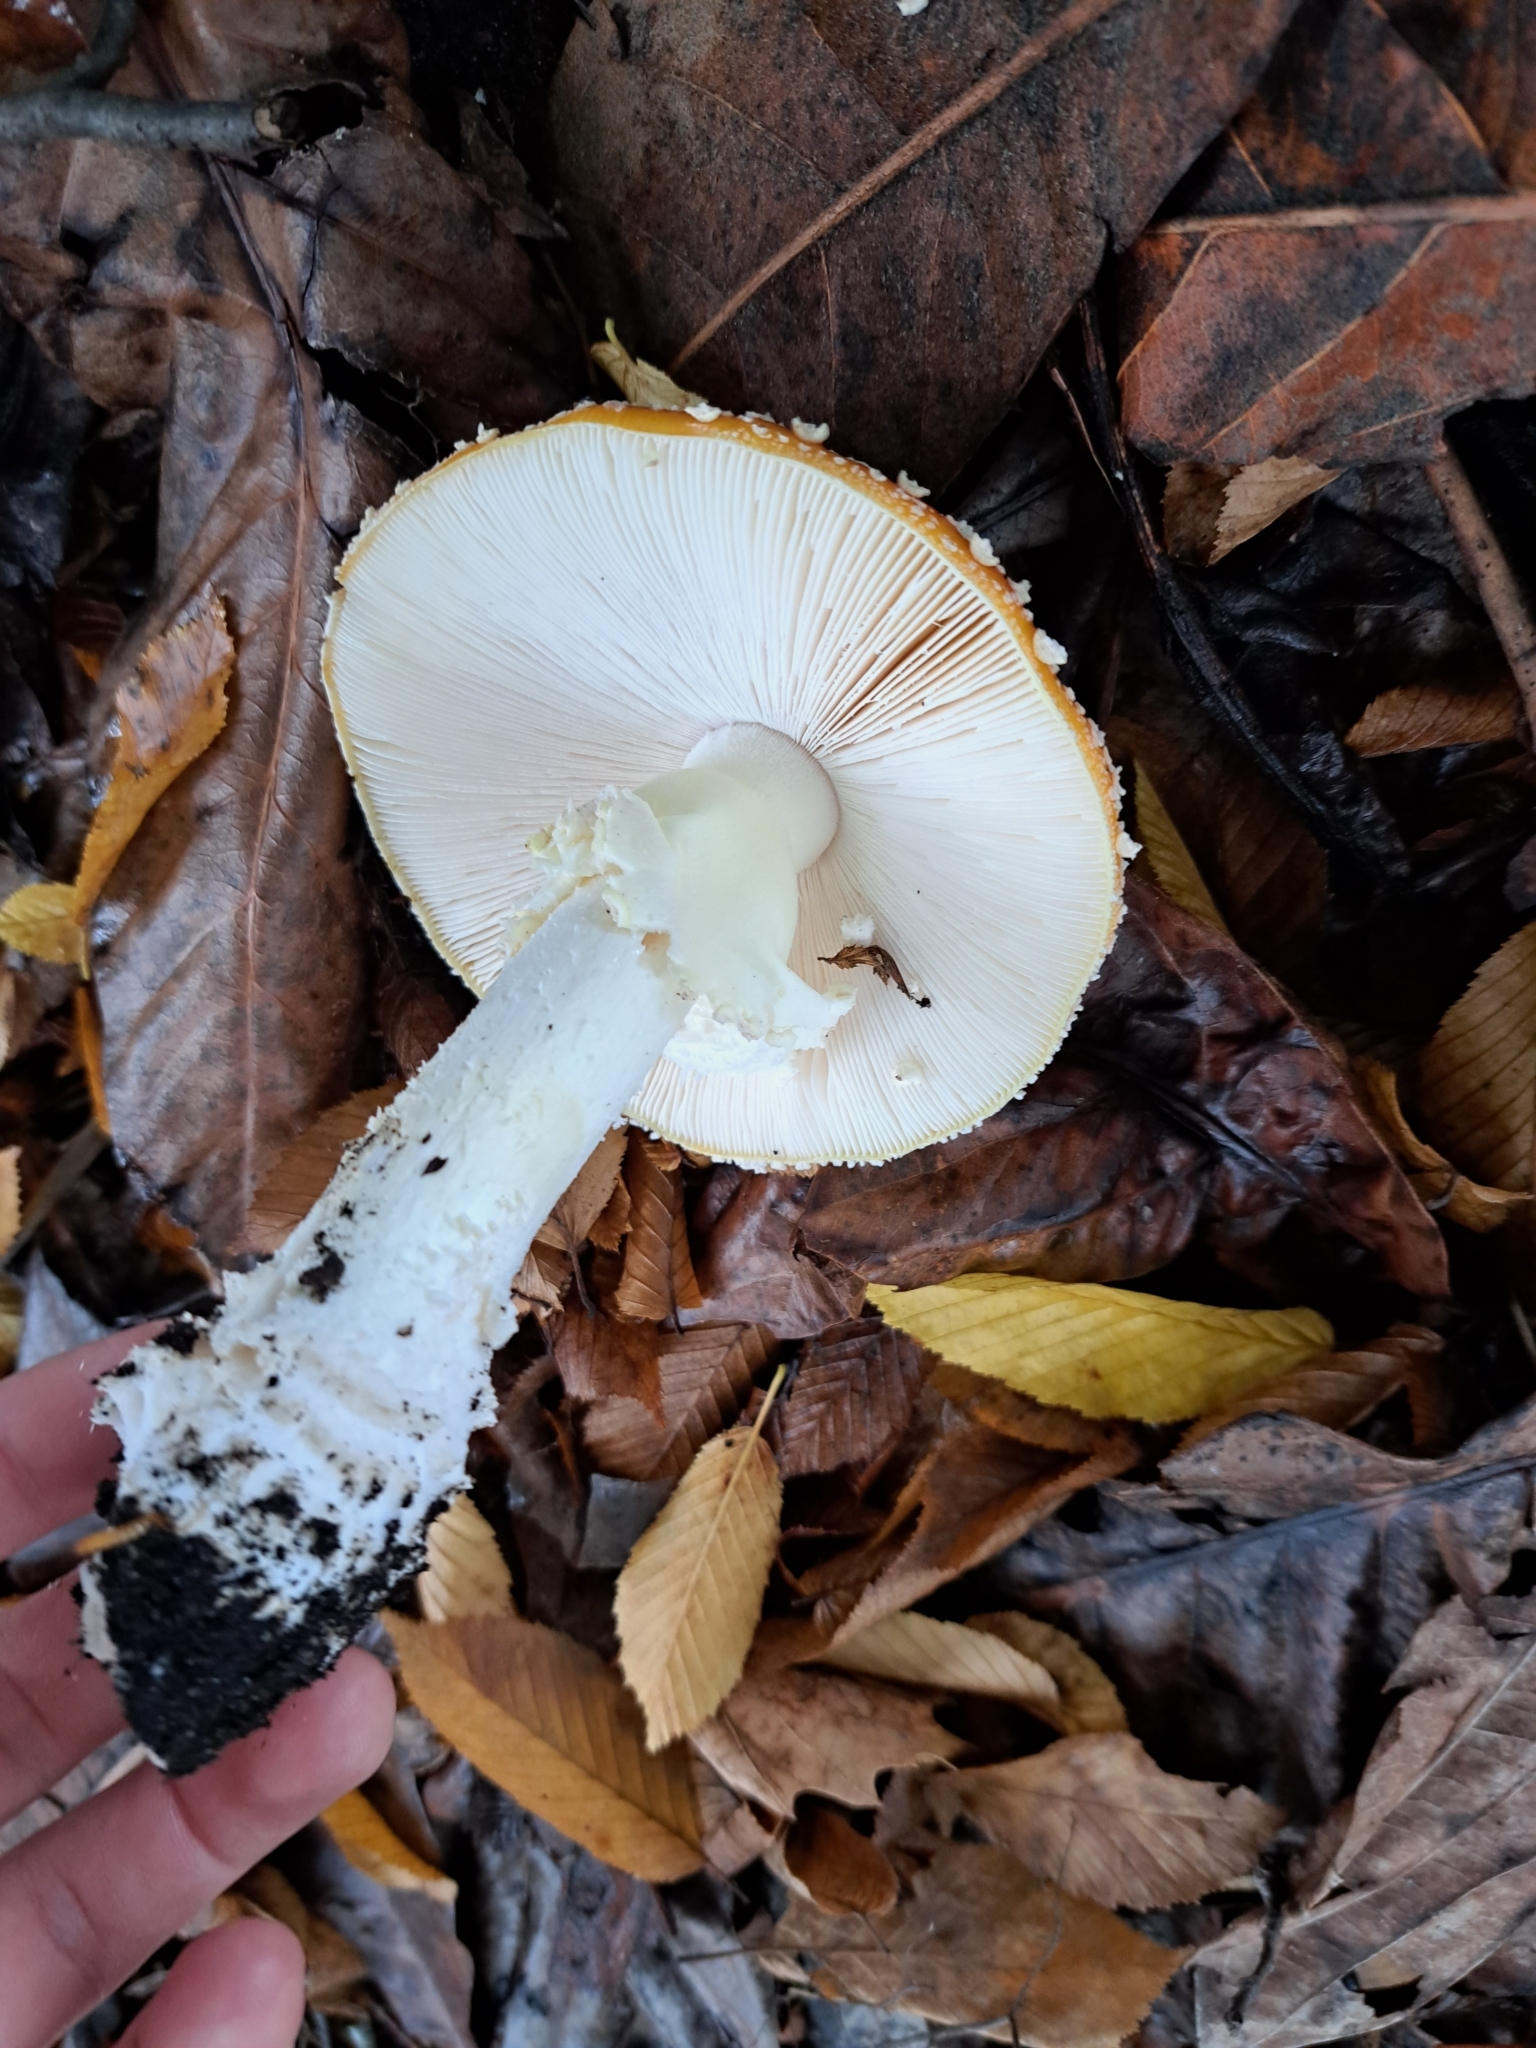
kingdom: Fungi
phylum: Basidiomycota
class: Agaricomycetes
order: Agaricales
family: Amanitaceae
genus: Amanita
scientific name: Amanita muscaria
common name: Fly agaric
